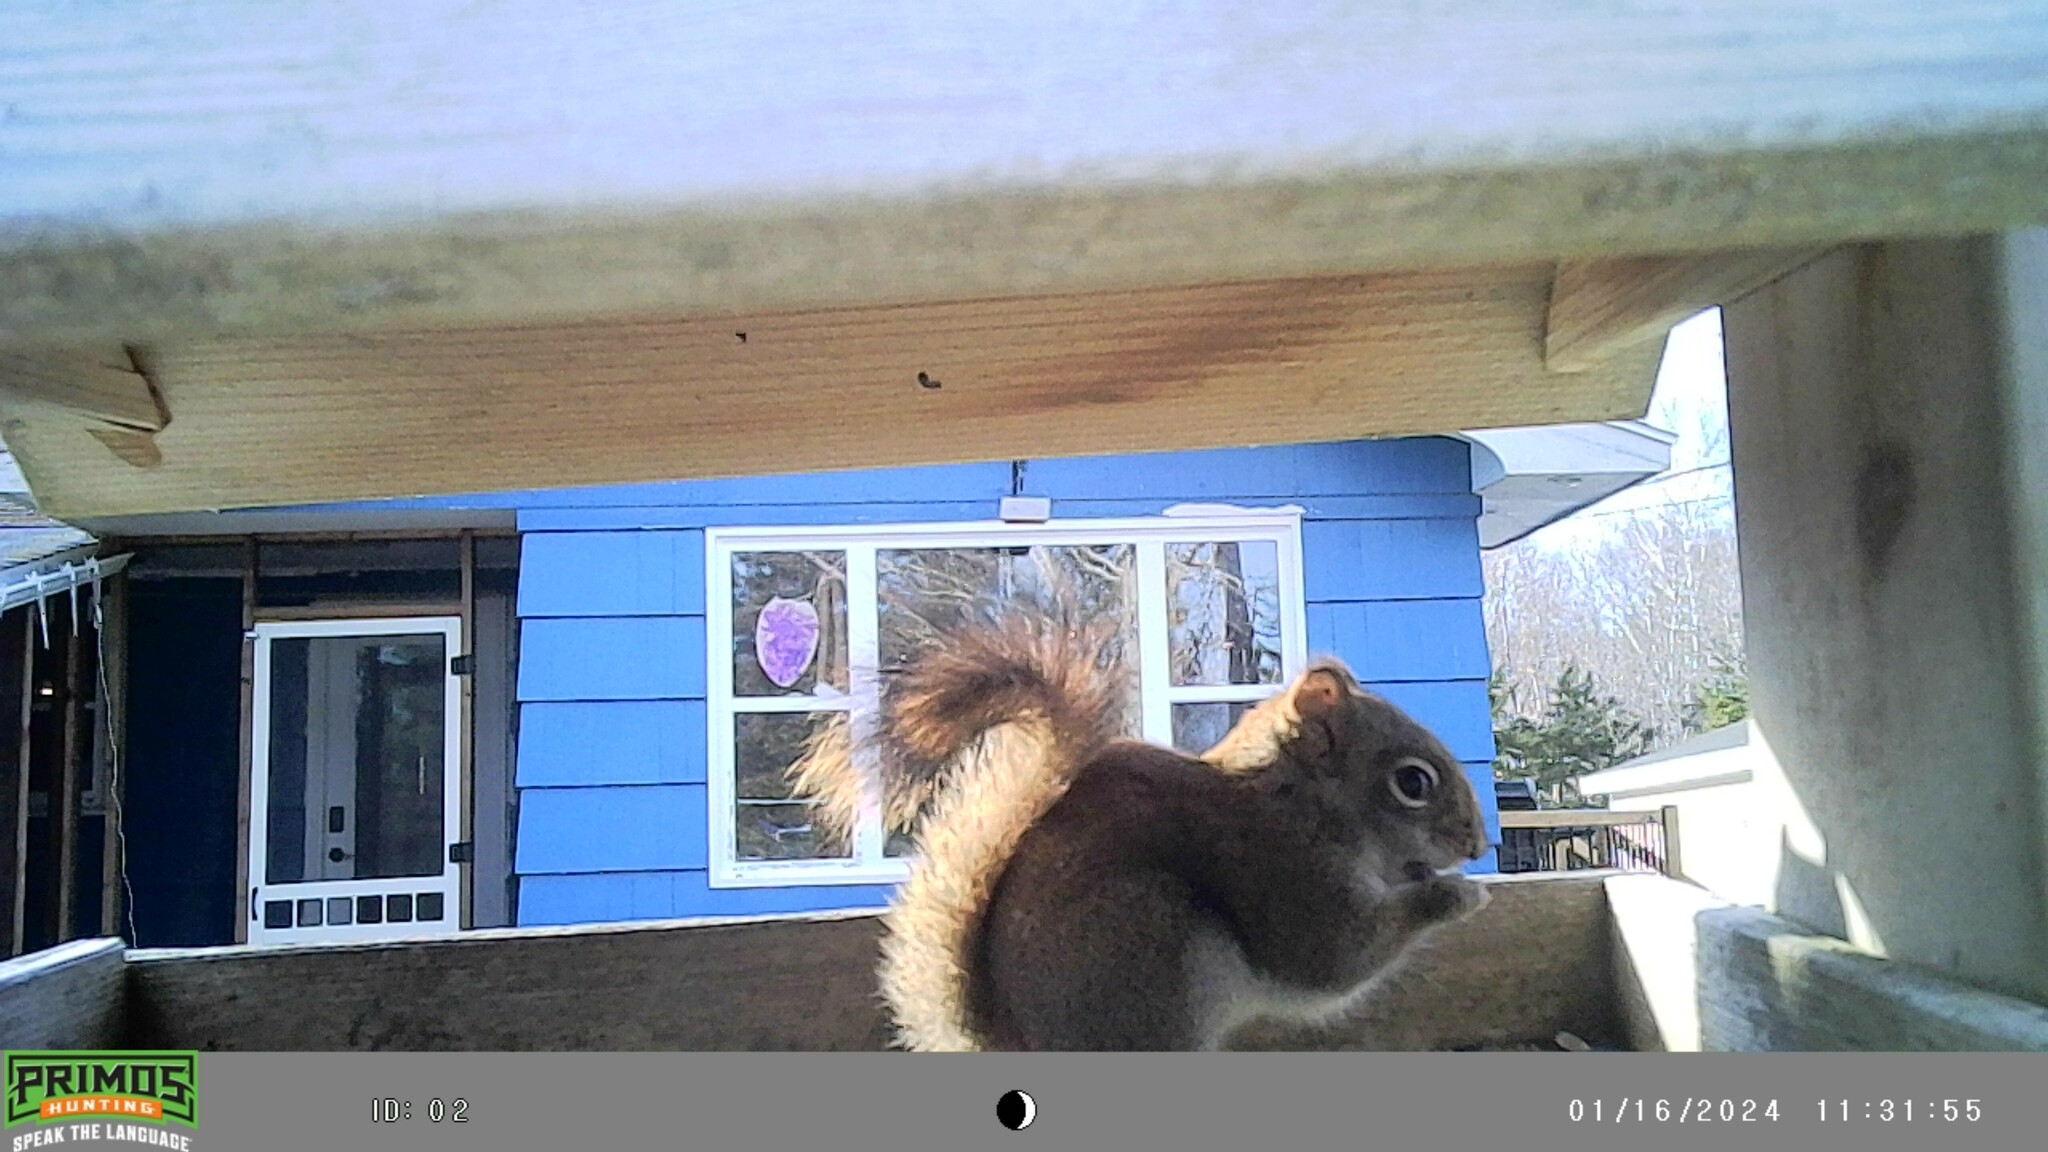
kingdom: Animalia
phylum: Chordata
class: Mammalia
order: Rodentia
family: Sciuridae
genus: Tamiasciurus
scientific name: Tamiasciurus hudsonicus
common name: Red squirrel
